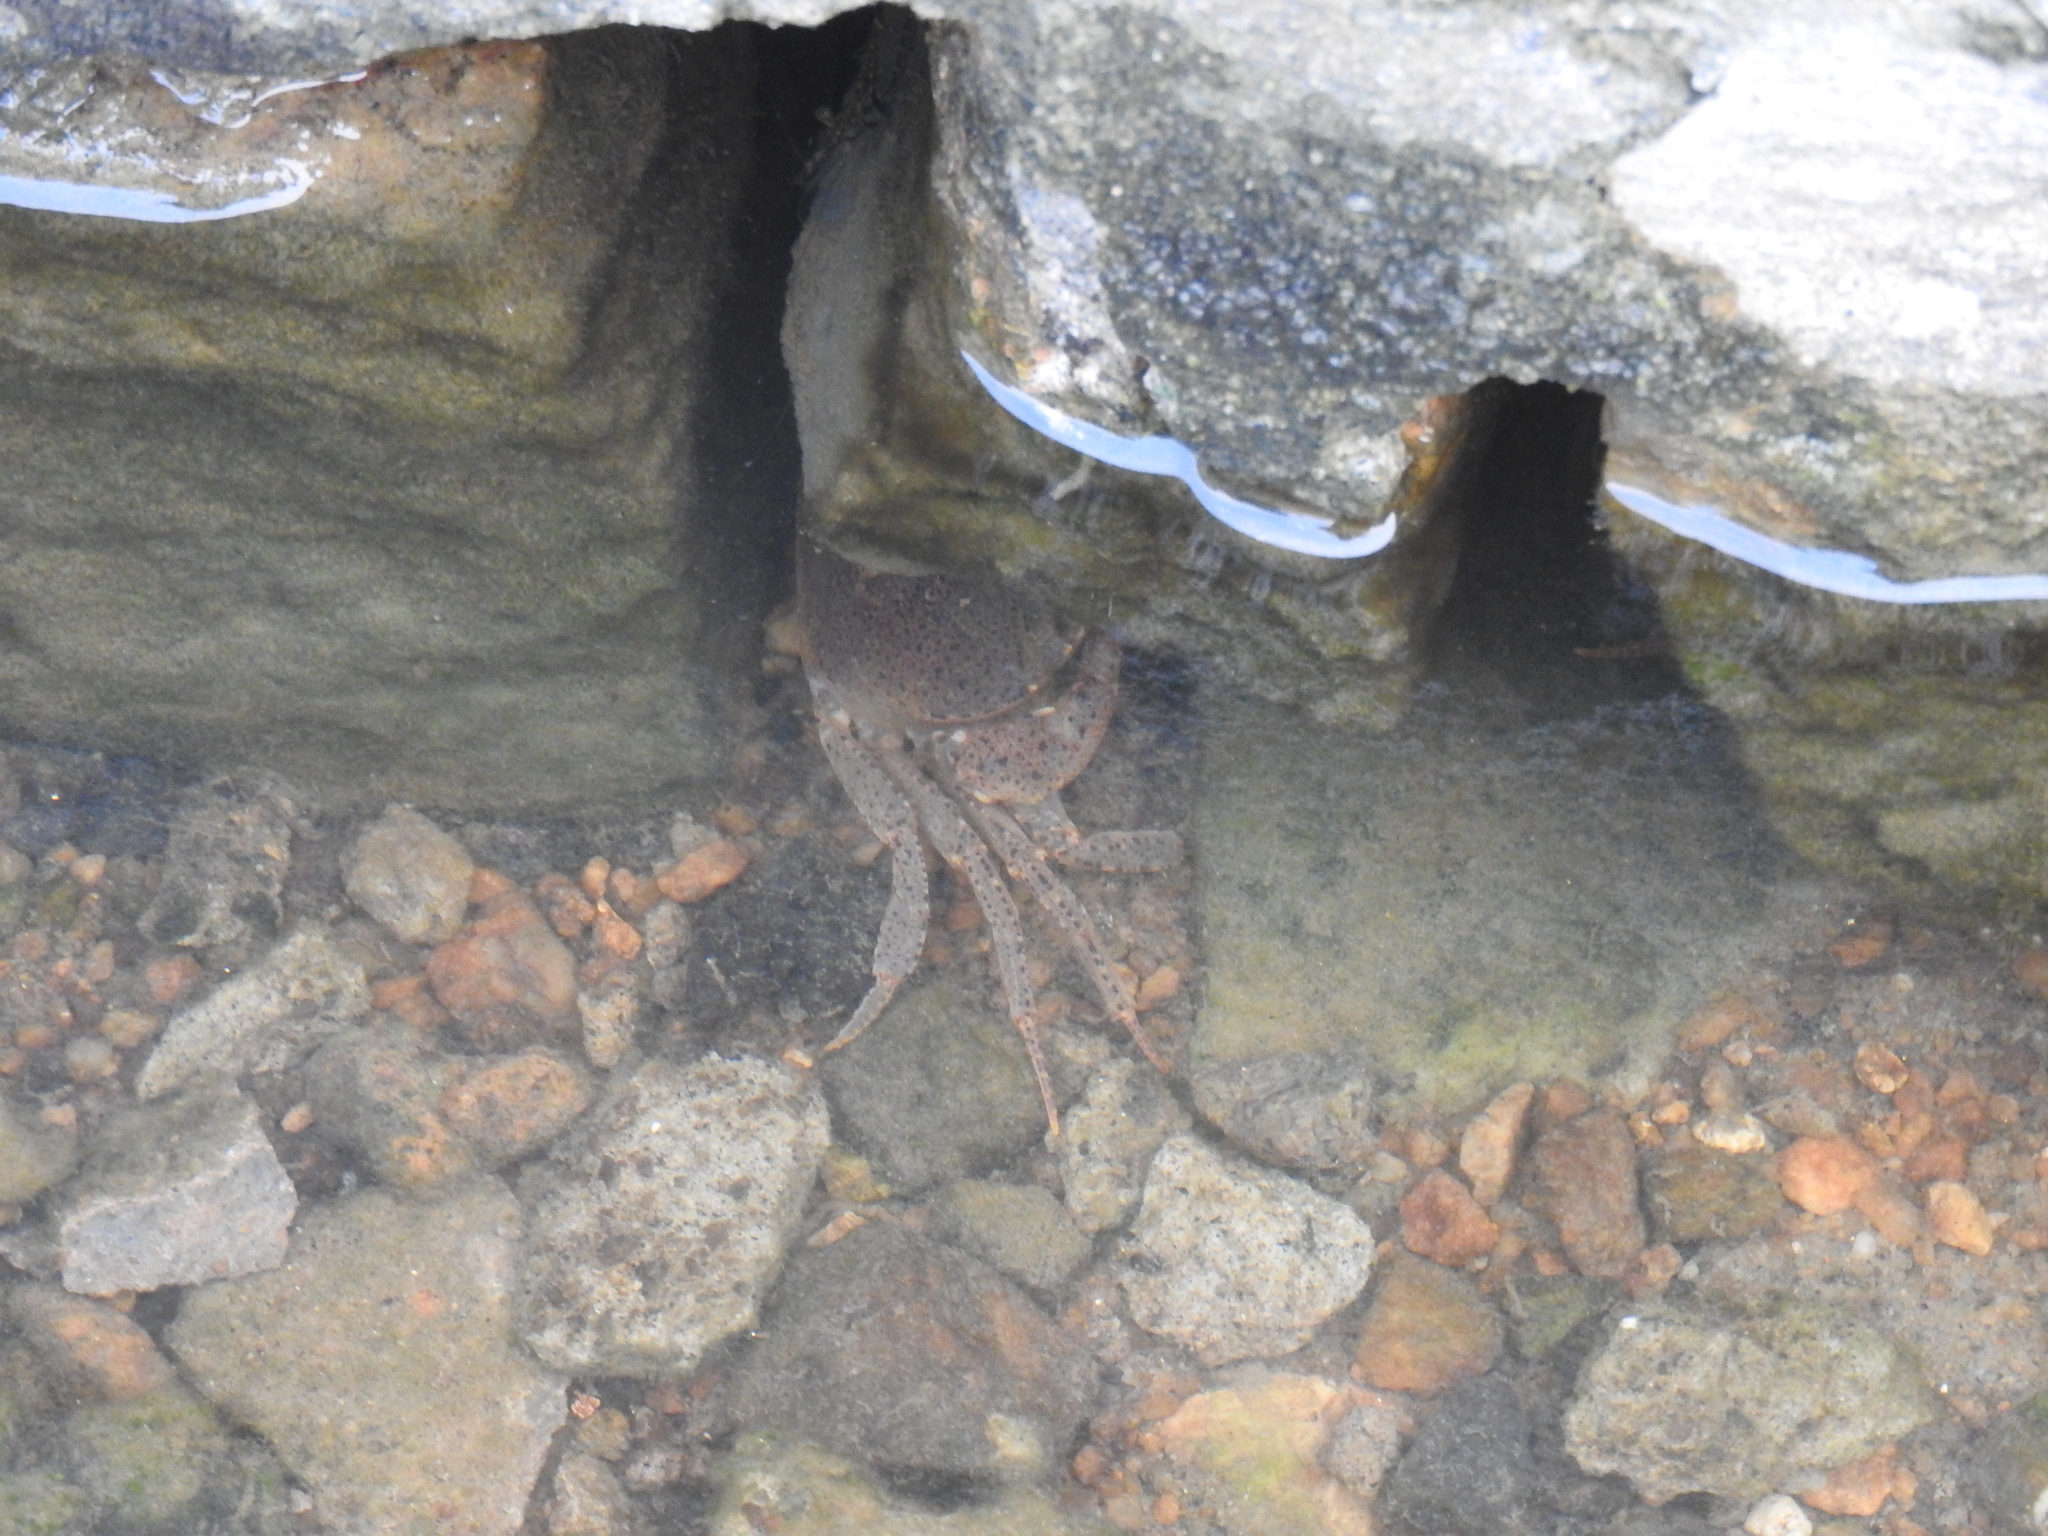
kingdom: Animalia
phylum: Arthropoda
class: Malacostraca
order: Decapoda
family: Gecarcinucidae
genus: Lamella
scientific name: Lamella lamellifrons
